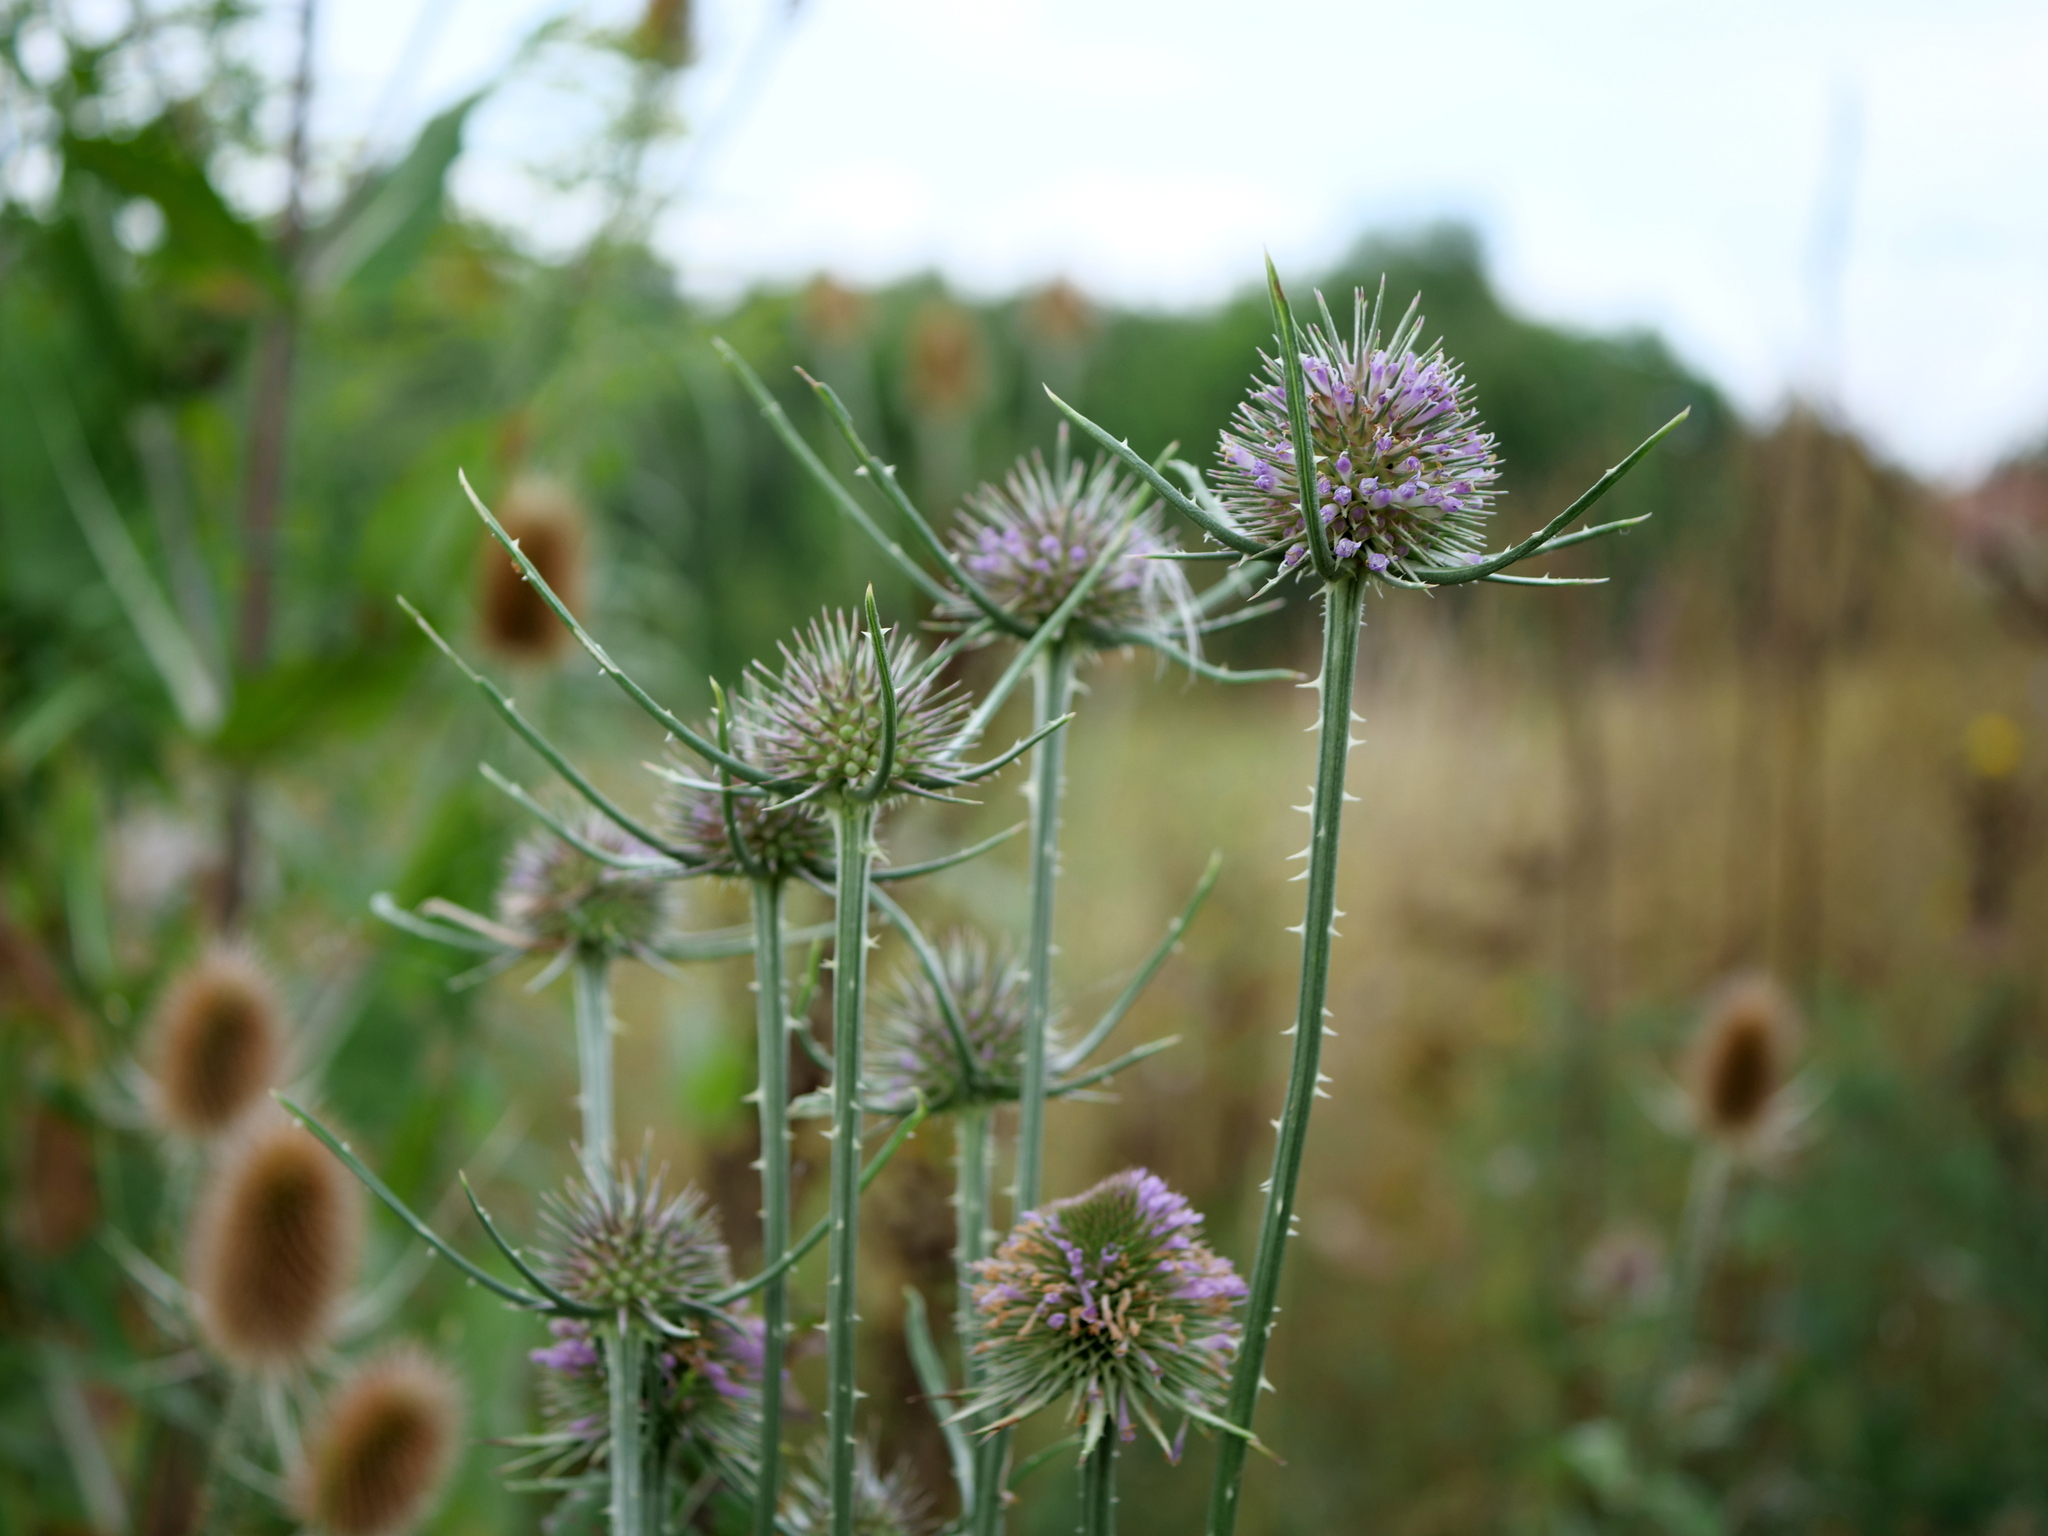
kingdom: Plantae
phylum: Tracheophyta
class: Magnoliopsida
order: Dipsacales
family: Caprifoliaceae
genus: Dipsacus
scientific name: Dipsacus fullonum
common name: Teasel
